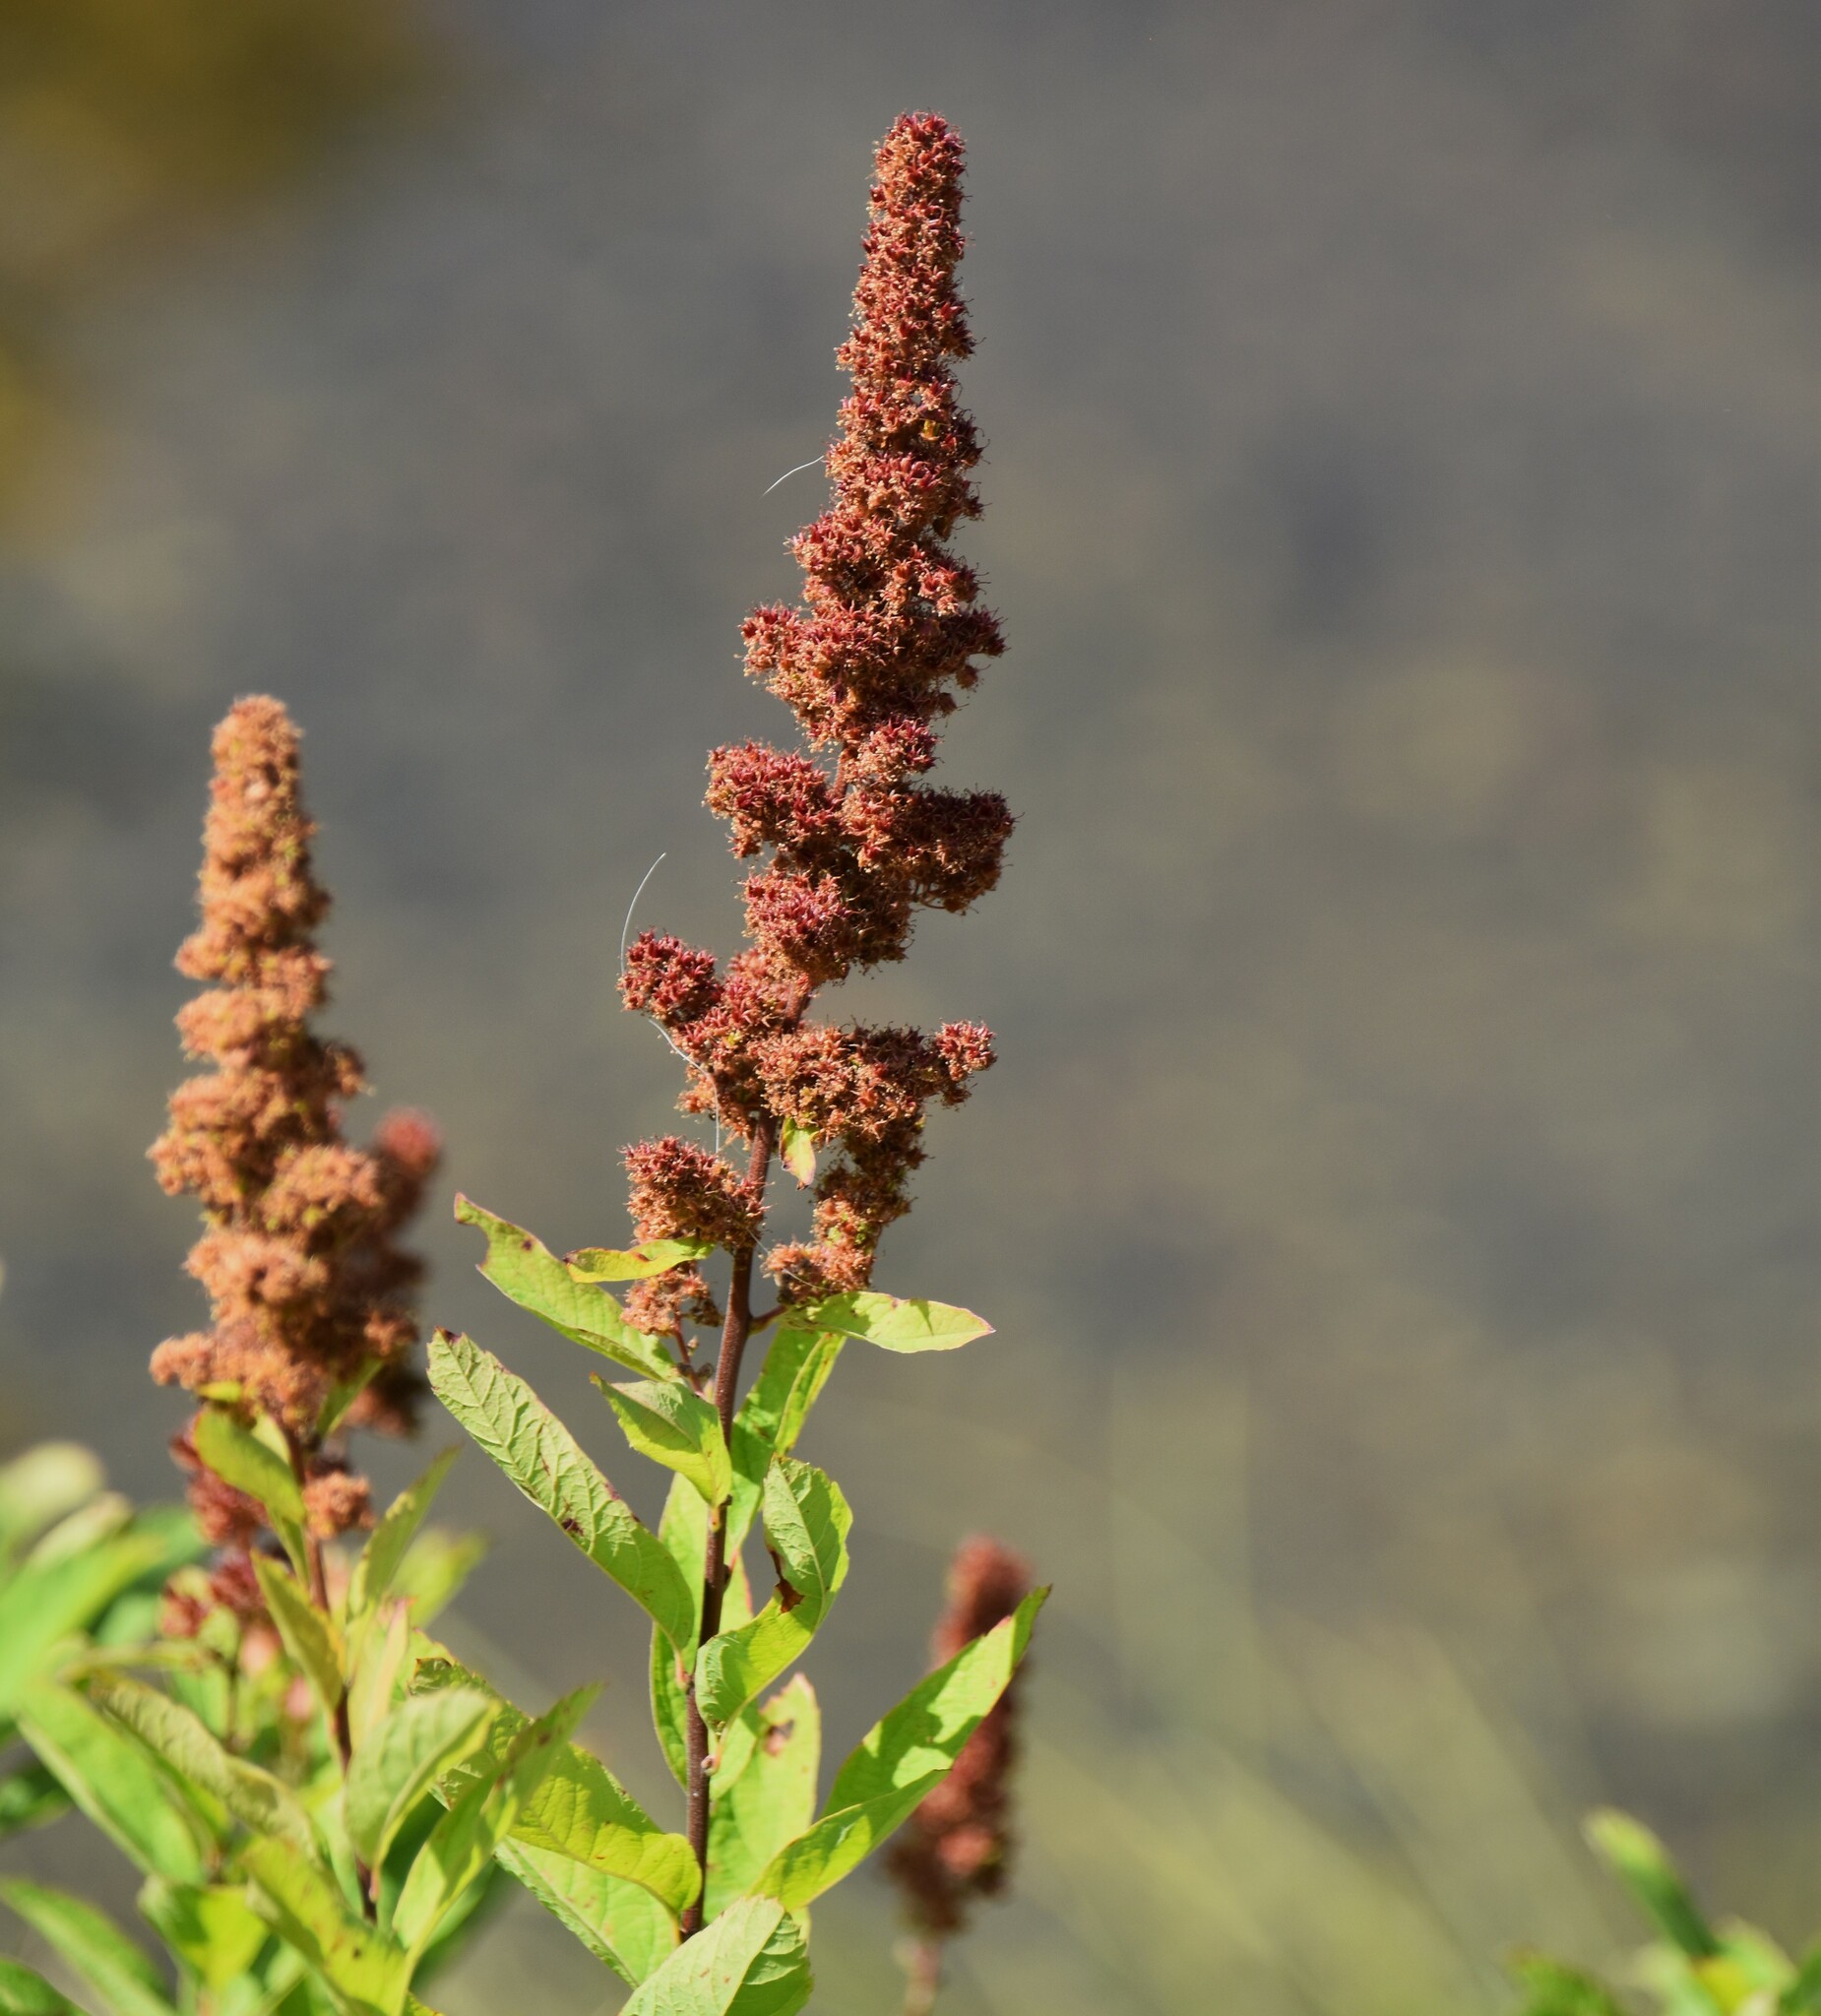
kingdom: Plantae
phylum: Tracheophyta
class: Magnoliopsida
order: Rosales
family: Rosaceae
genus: Spiraea
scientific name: Spiraea douglasii
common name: Steeplebush
